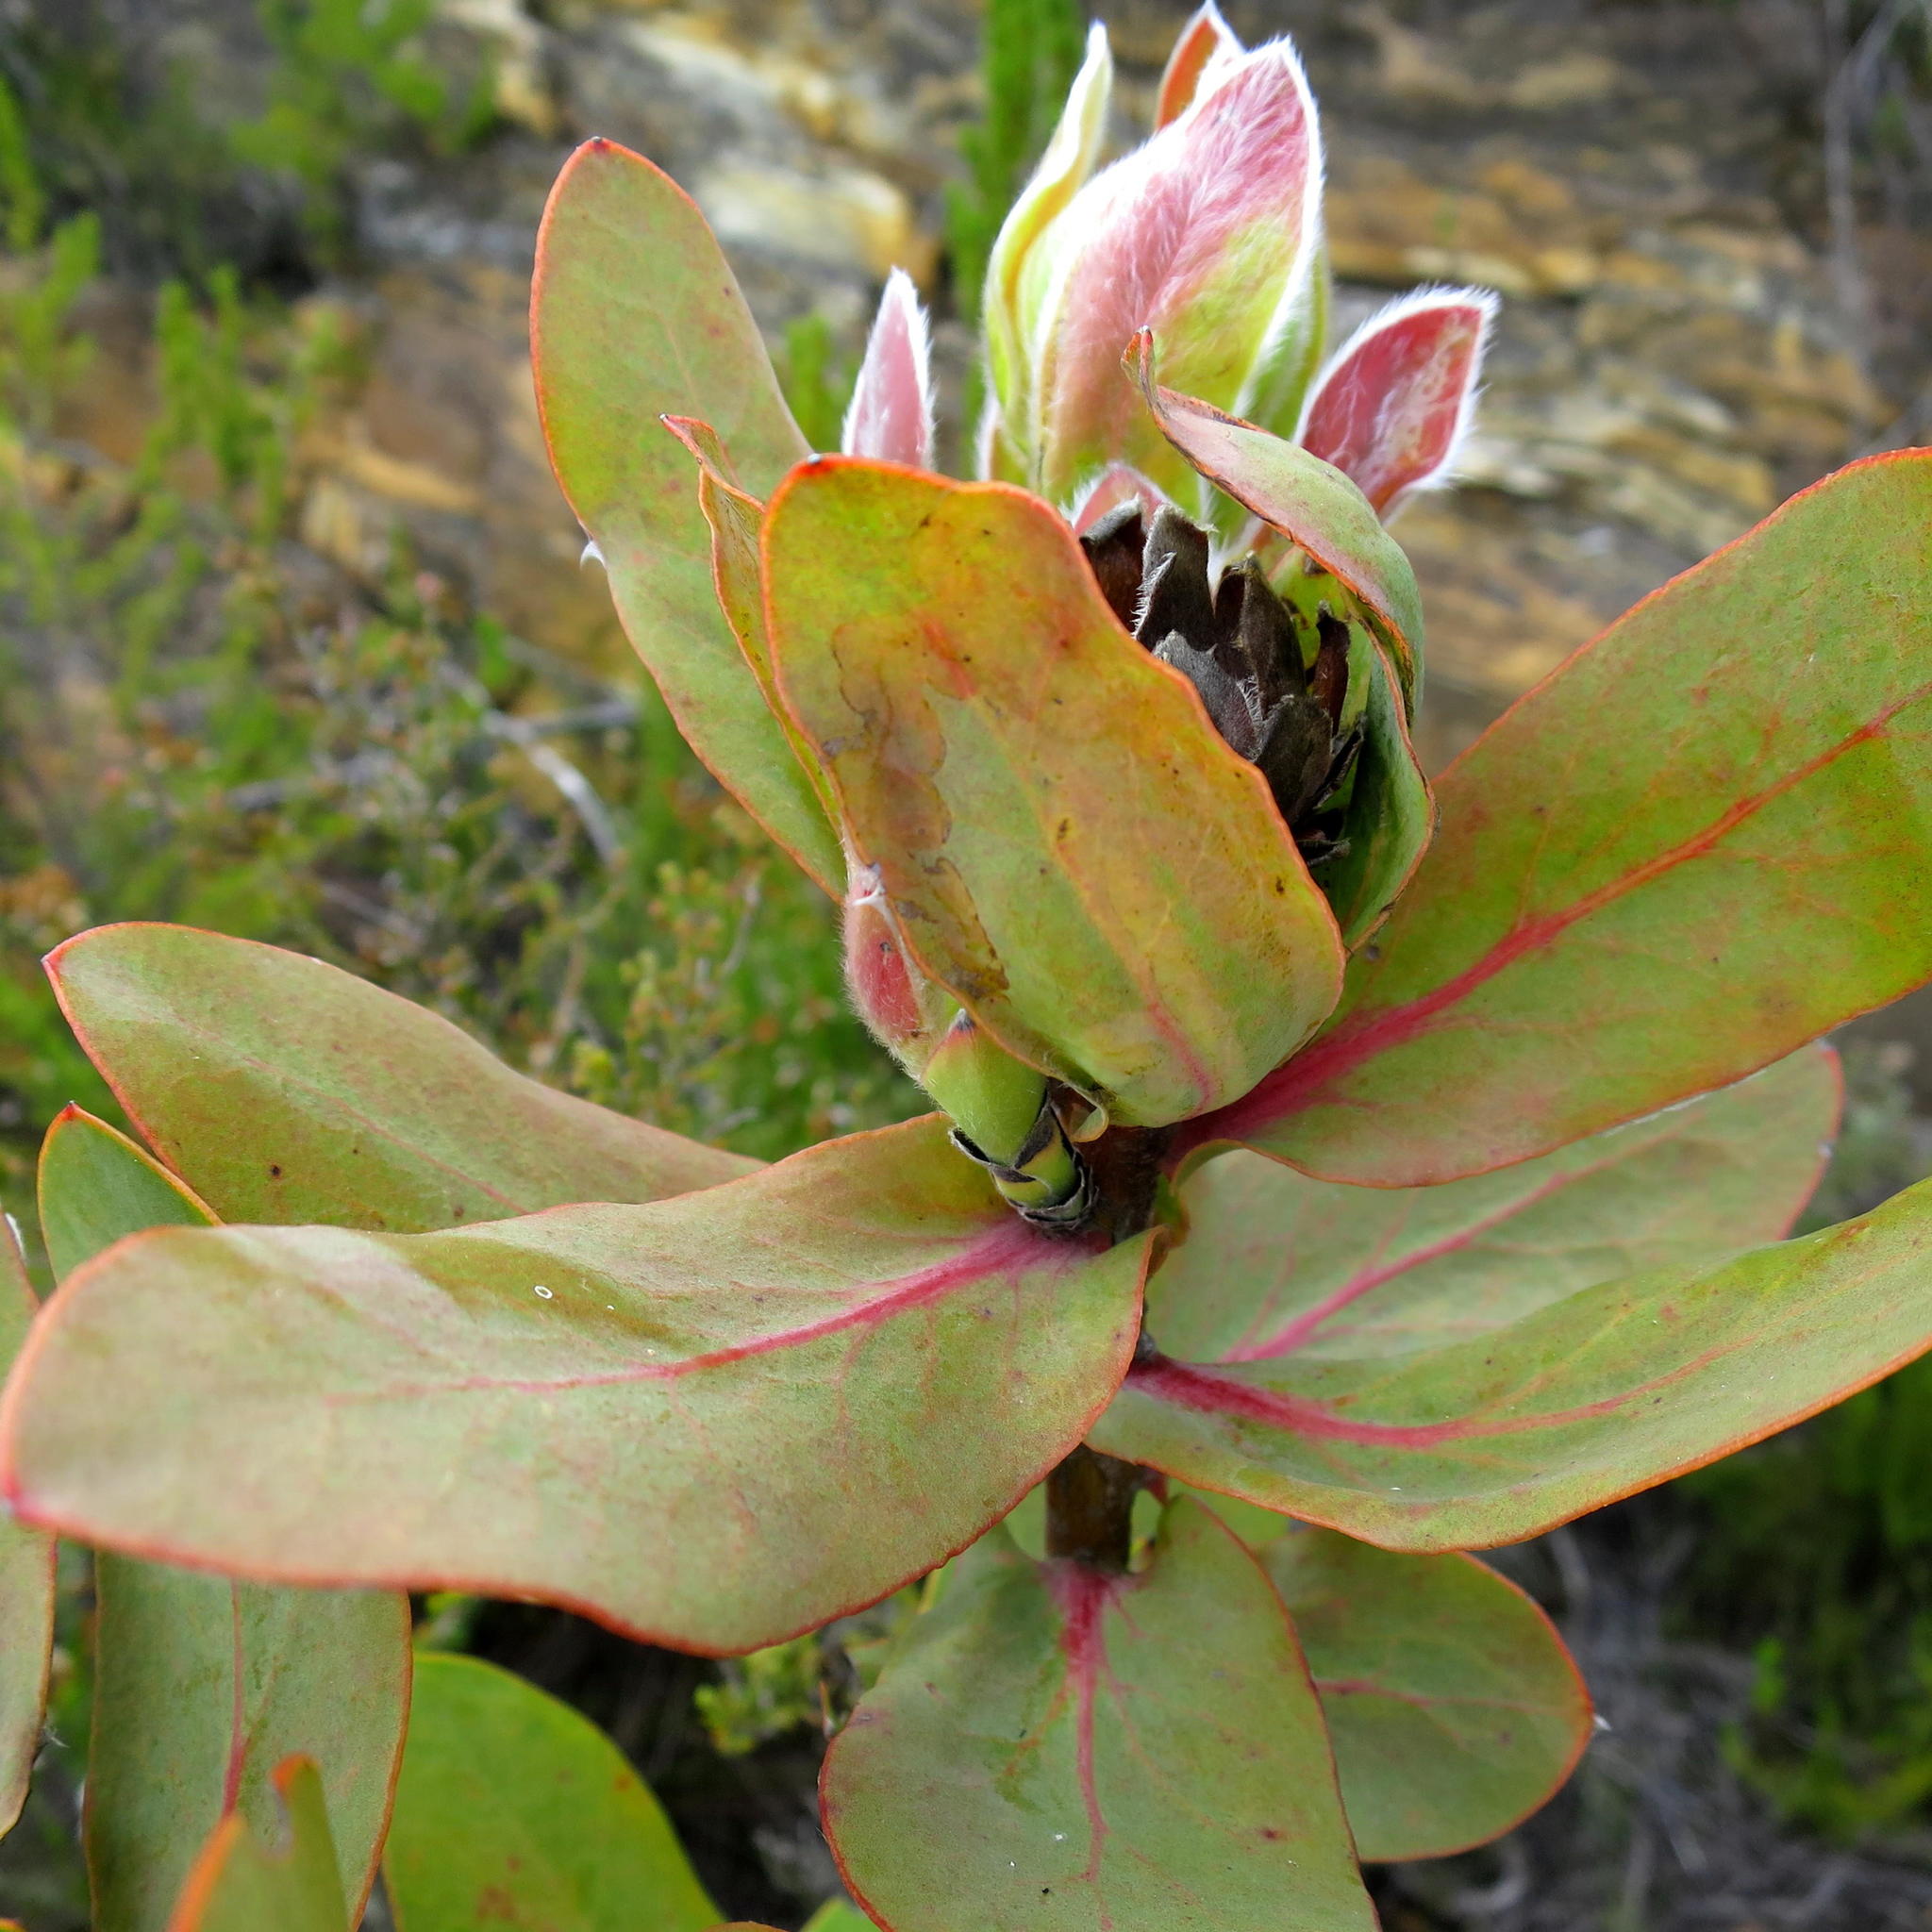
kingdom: Plantae
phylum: Tracheophyta
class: Magnoliopsida
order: Proteales
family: Proteaceae
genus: Protea
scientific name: Protea eximia
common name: Broad-leaved sugarbush
